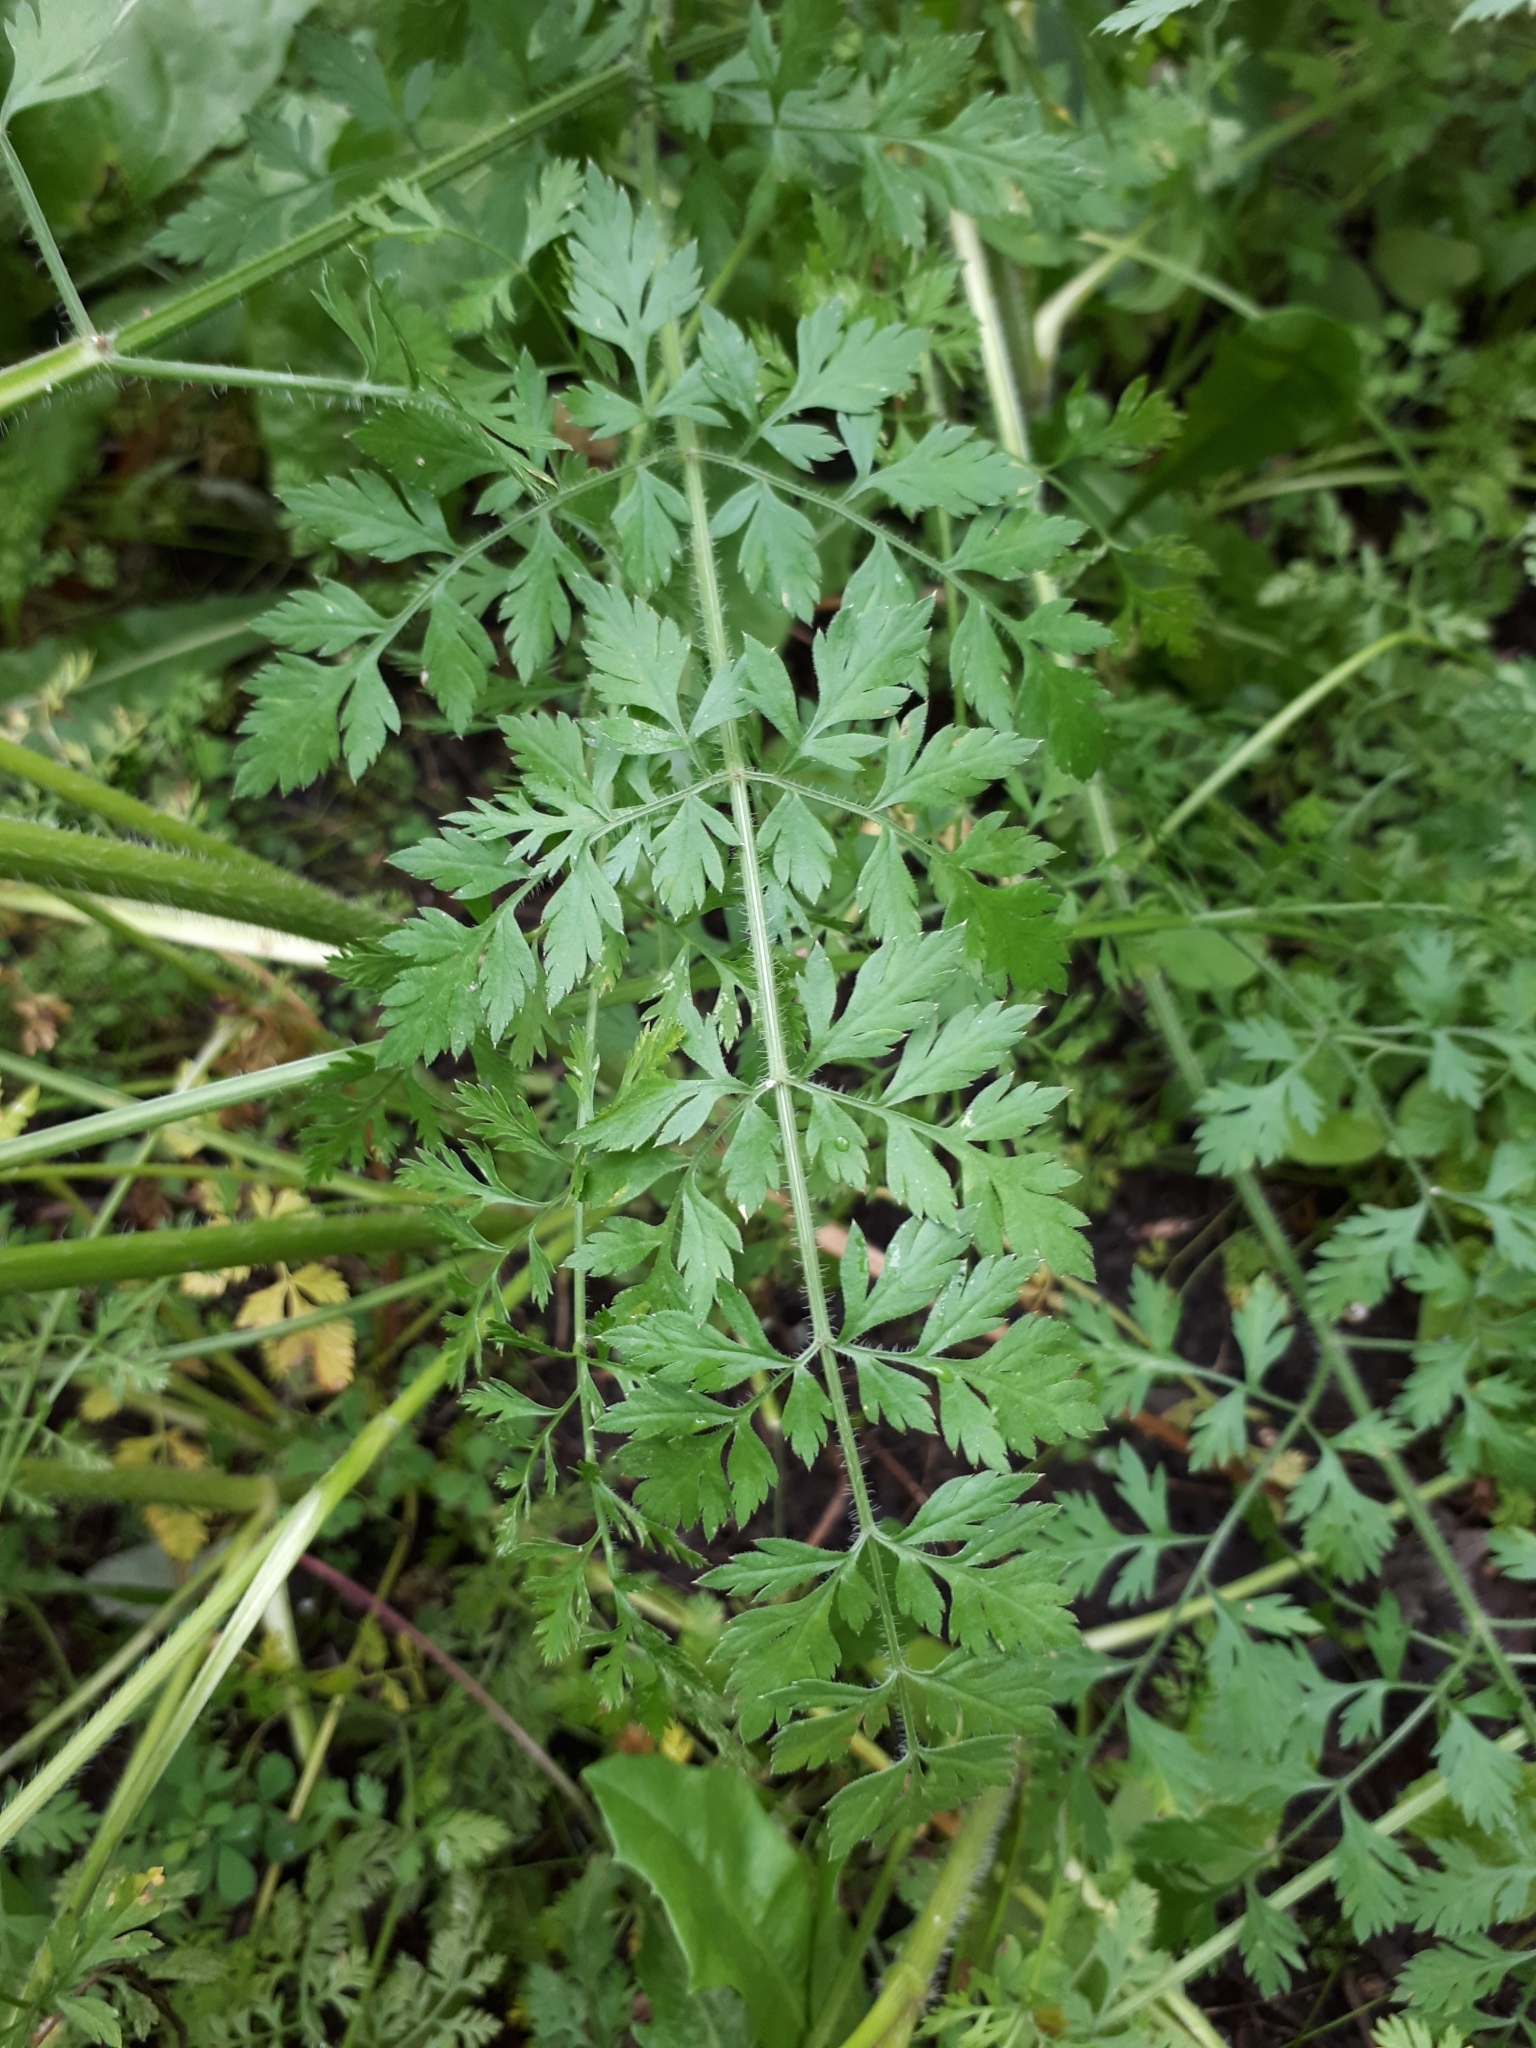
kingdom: Plantae
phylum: Tracheophyta
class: Magnoliopsida
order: Apiales
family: Apiaceae
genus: Daucus
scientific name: Daucus carota
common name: Wild carrot
